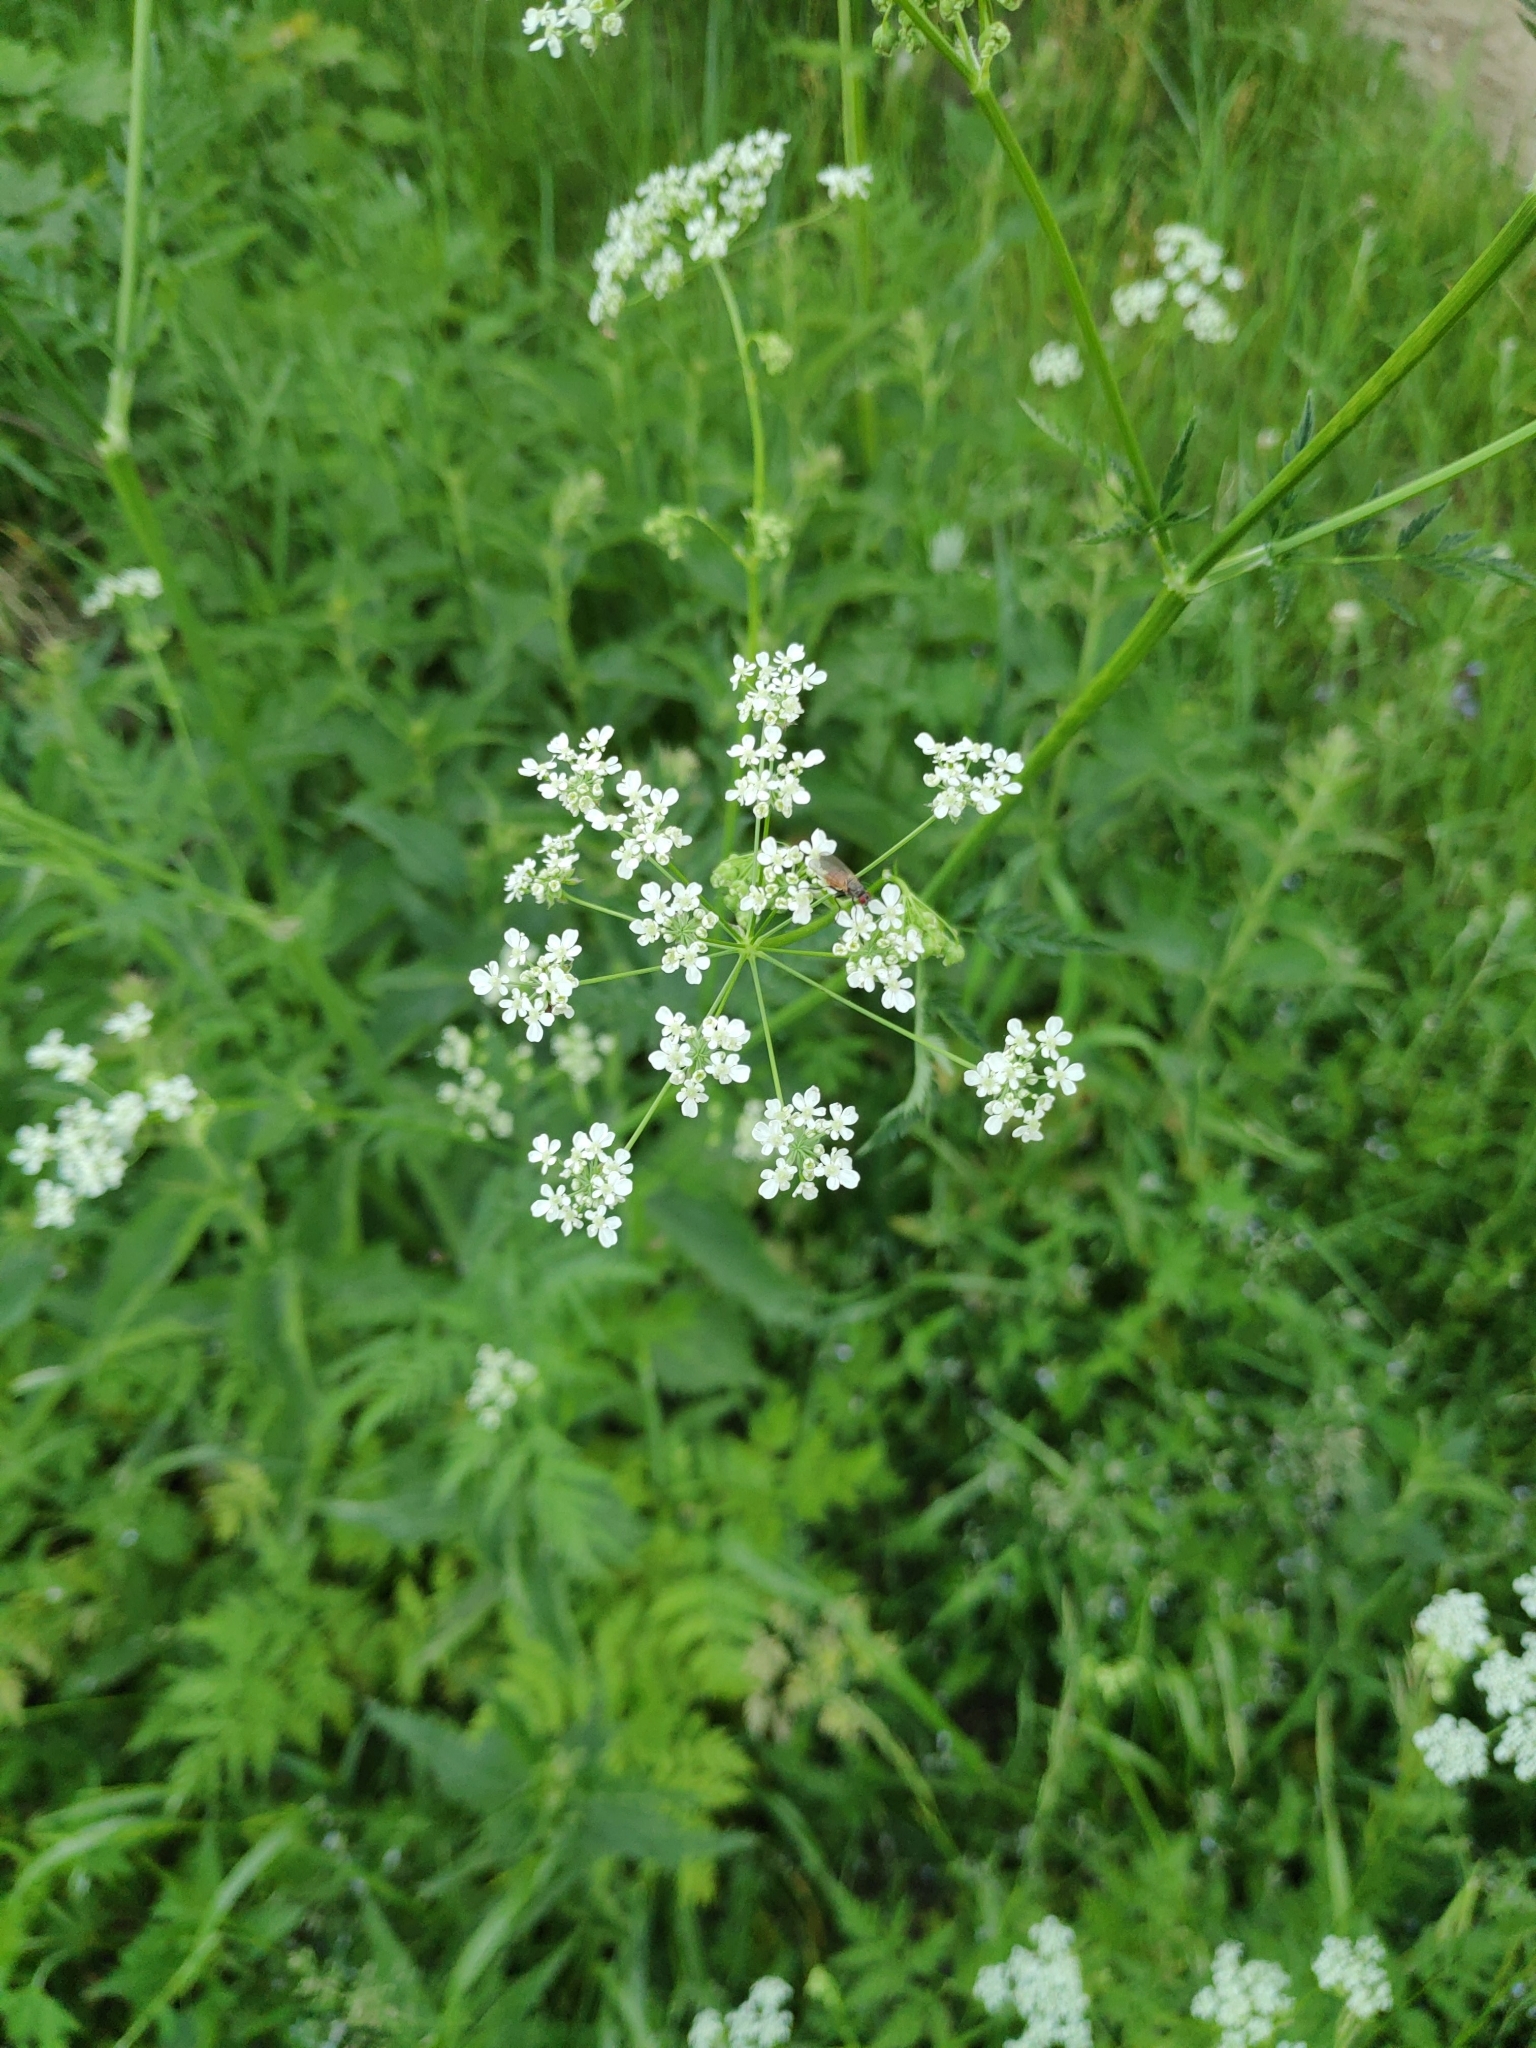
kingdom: Plantae
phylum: Tracheophyta
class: Magnoliopsida
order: Apiales
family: Apiaceae
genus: Anthriscus
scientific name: Anthriscus sylvestris
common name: Cow parsley
